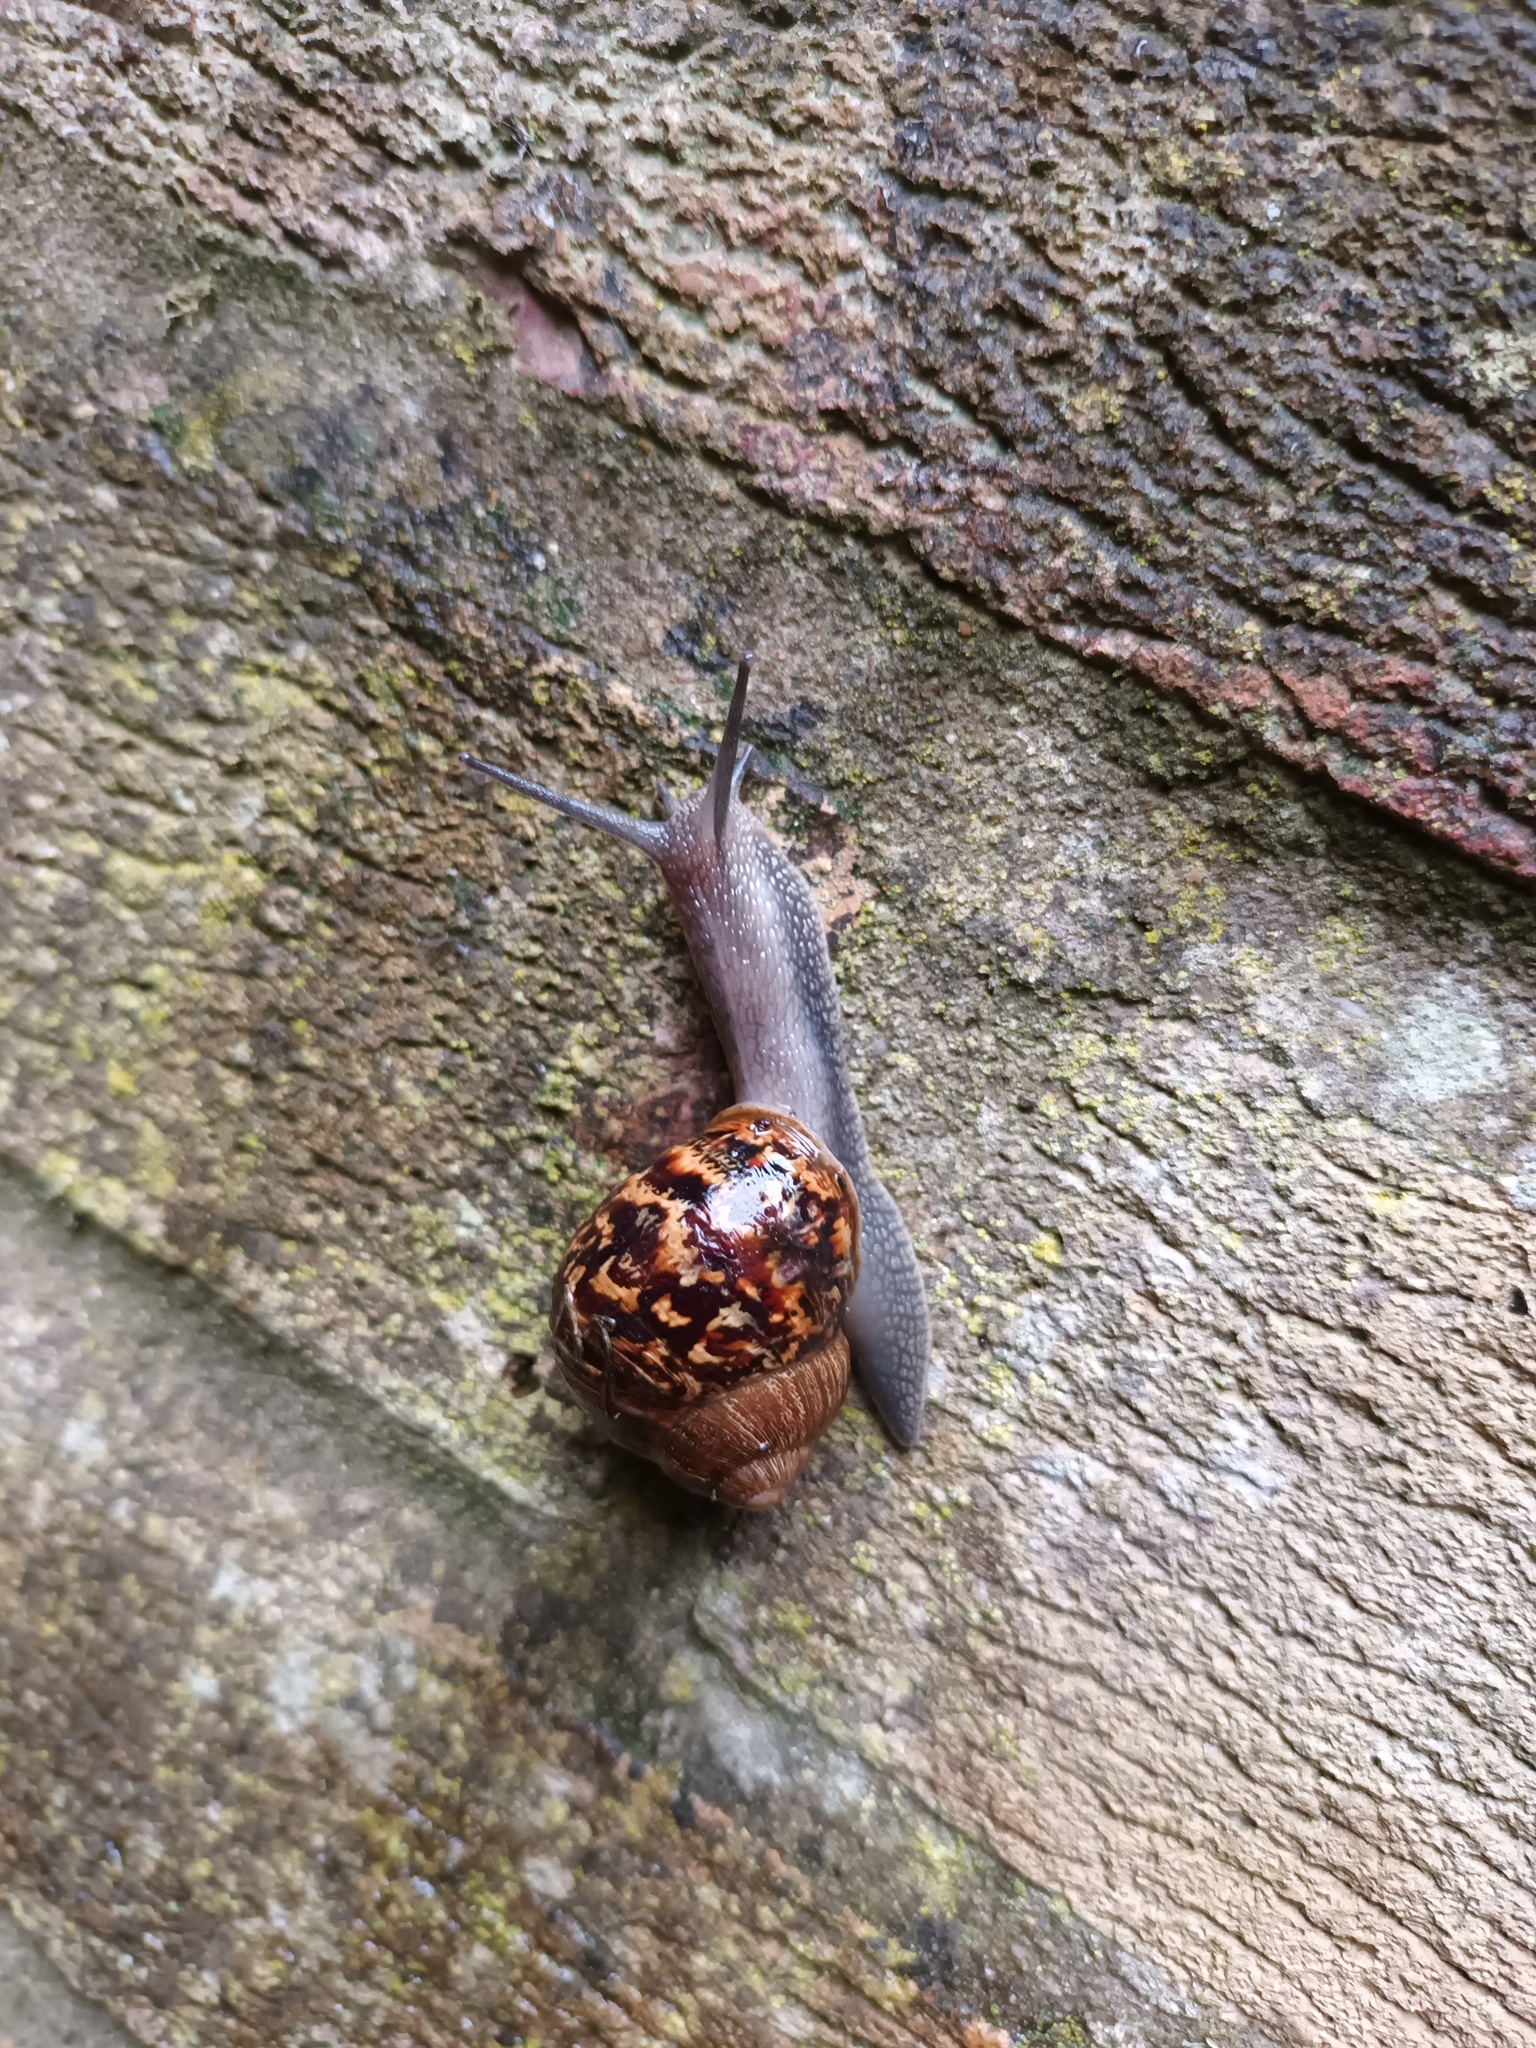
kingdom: Animalia
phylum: Mollusca
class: Gastropoda
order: Stylommatophora
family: Helicidae
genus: Cornu
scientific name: Cornu aspersum
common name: Brown garden snail
